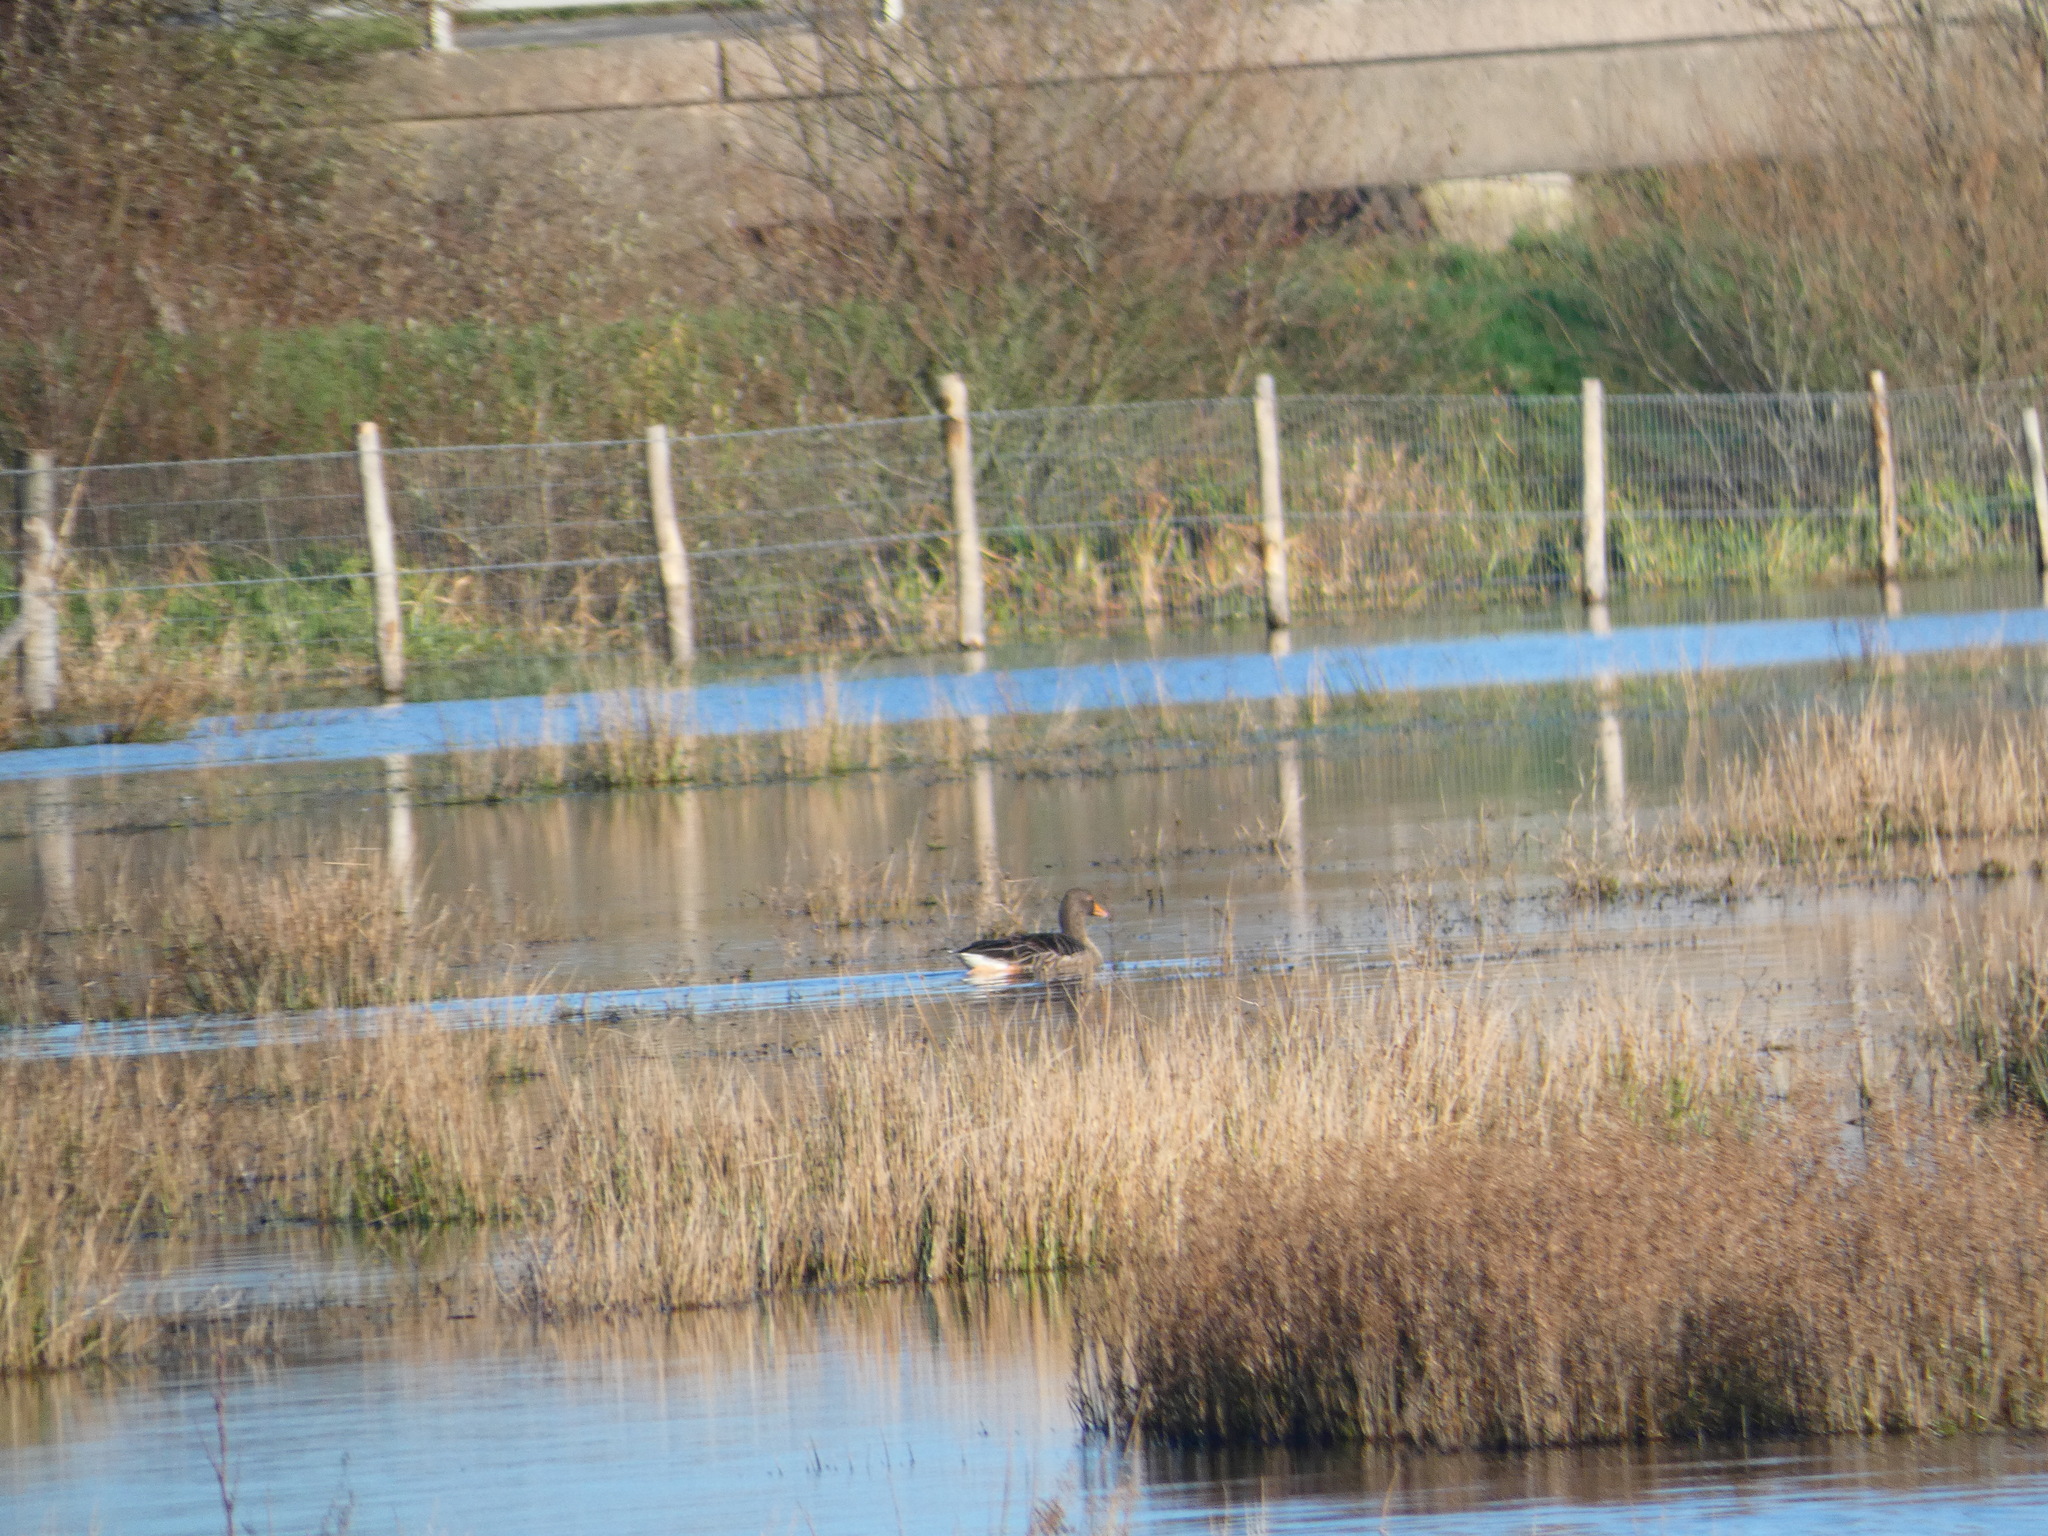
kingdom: Animalia
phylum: Chordata
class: Aves
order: Anseriformes
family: Anatidae
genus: Anser
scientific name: Anser anser
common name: Greylag goose
